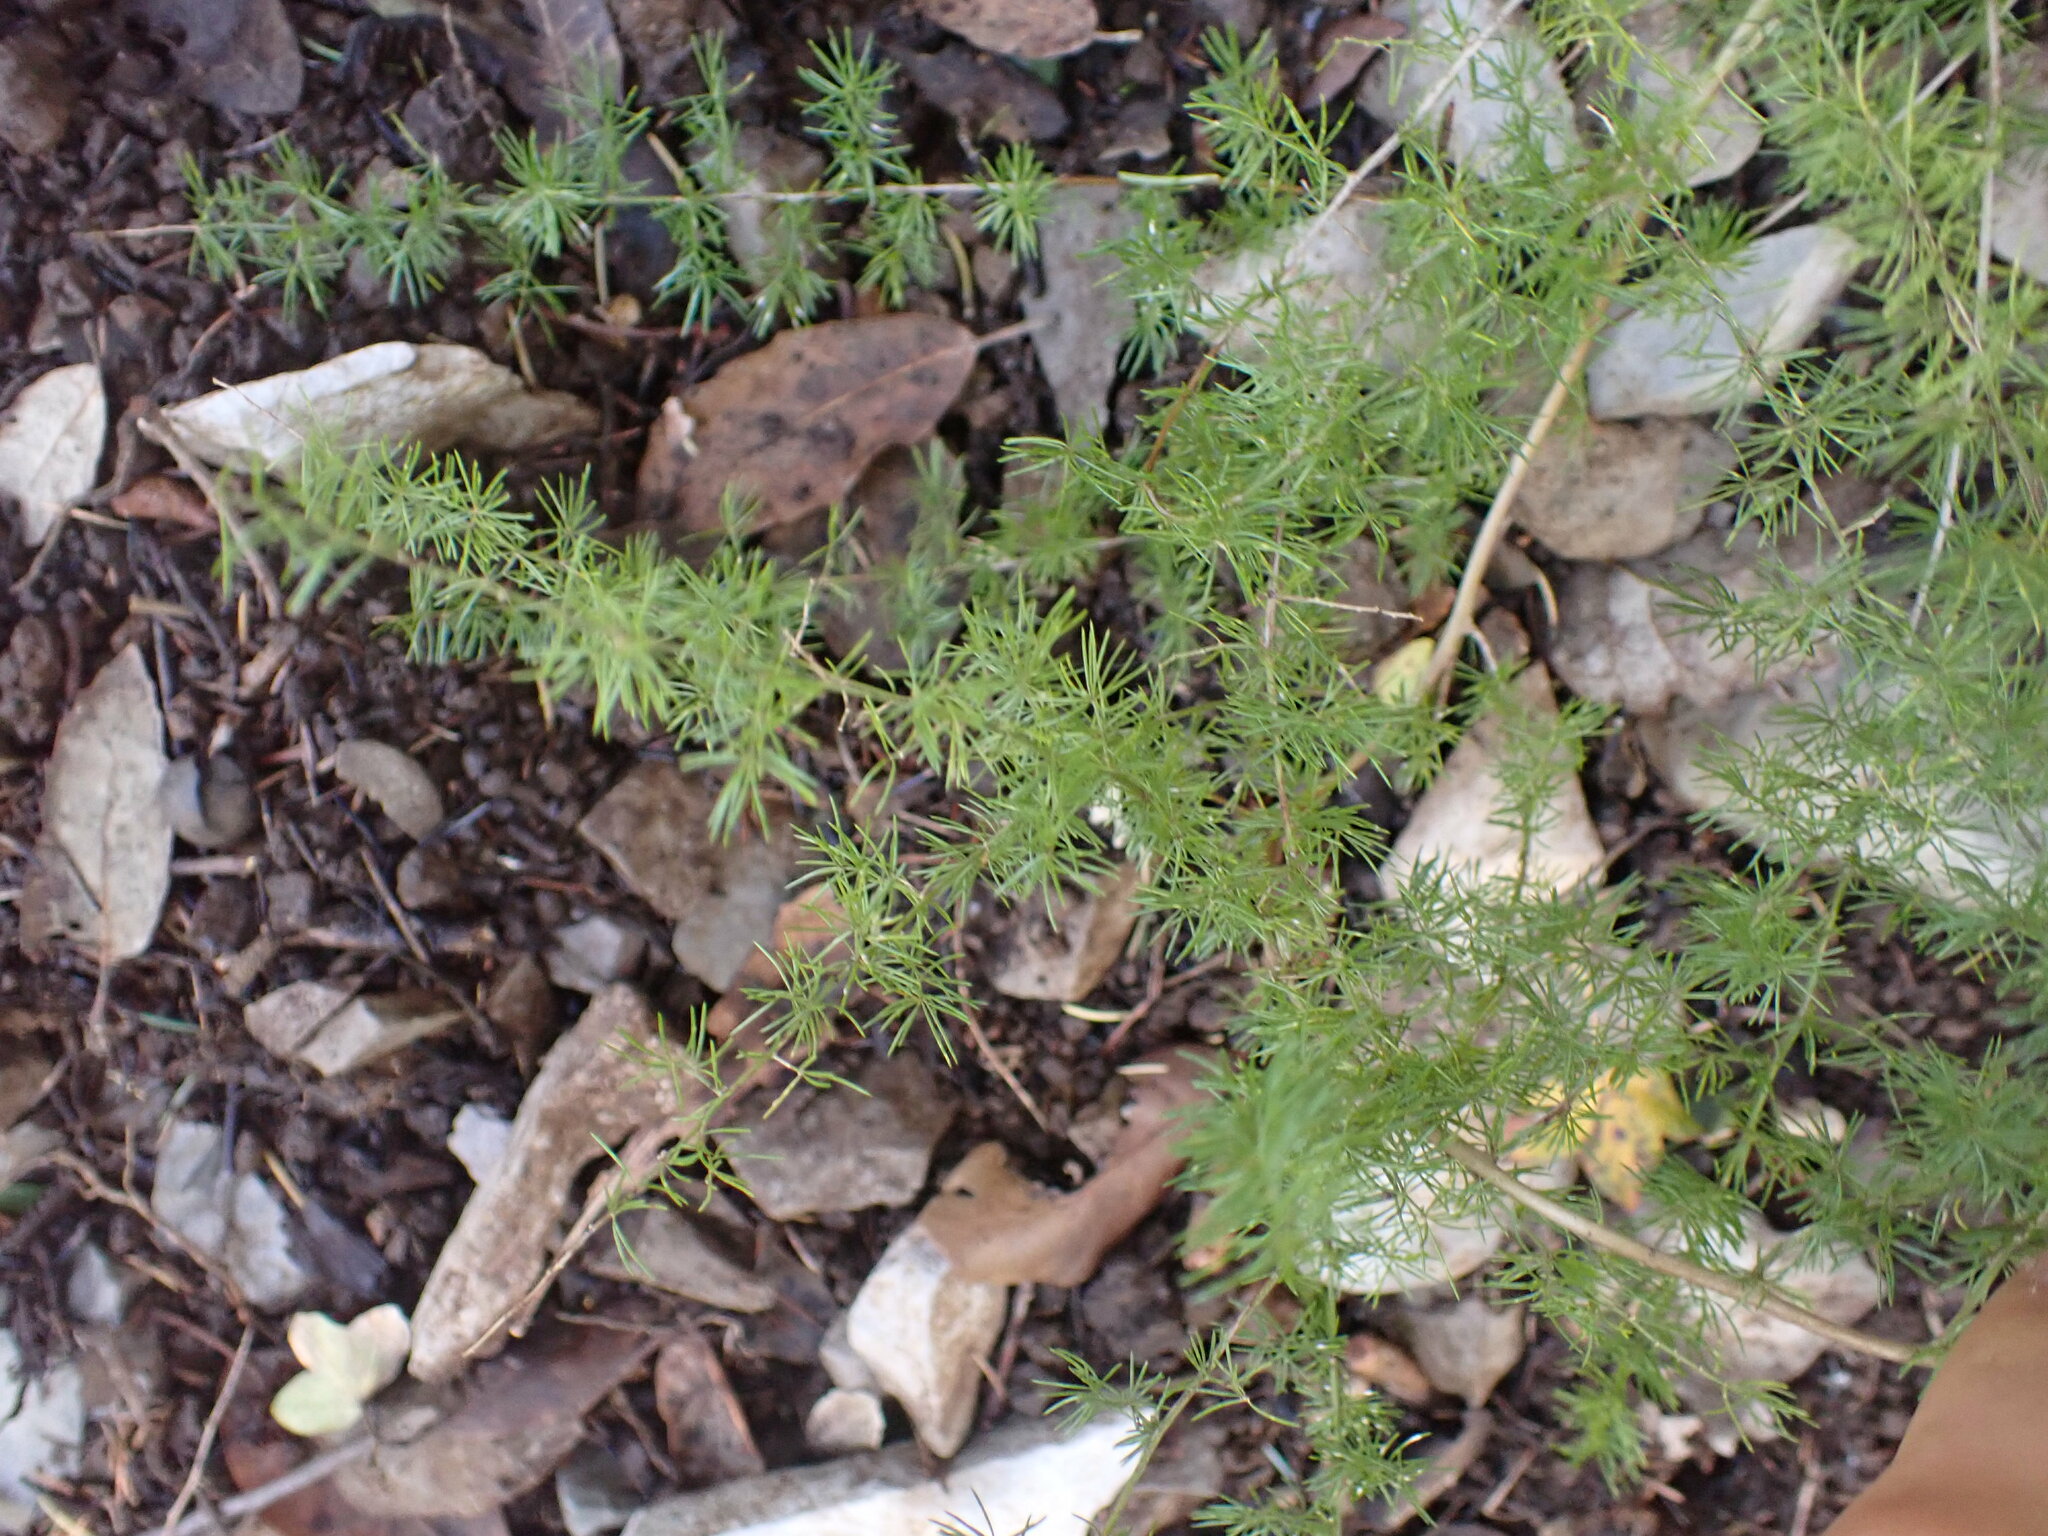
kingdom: Plantae
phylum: Tracheophyta
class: Liliopsida
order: Asparagales
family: Asparagaceae
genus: Asparagus
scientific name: Asparagus acutifolius
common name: Wild asparagus
